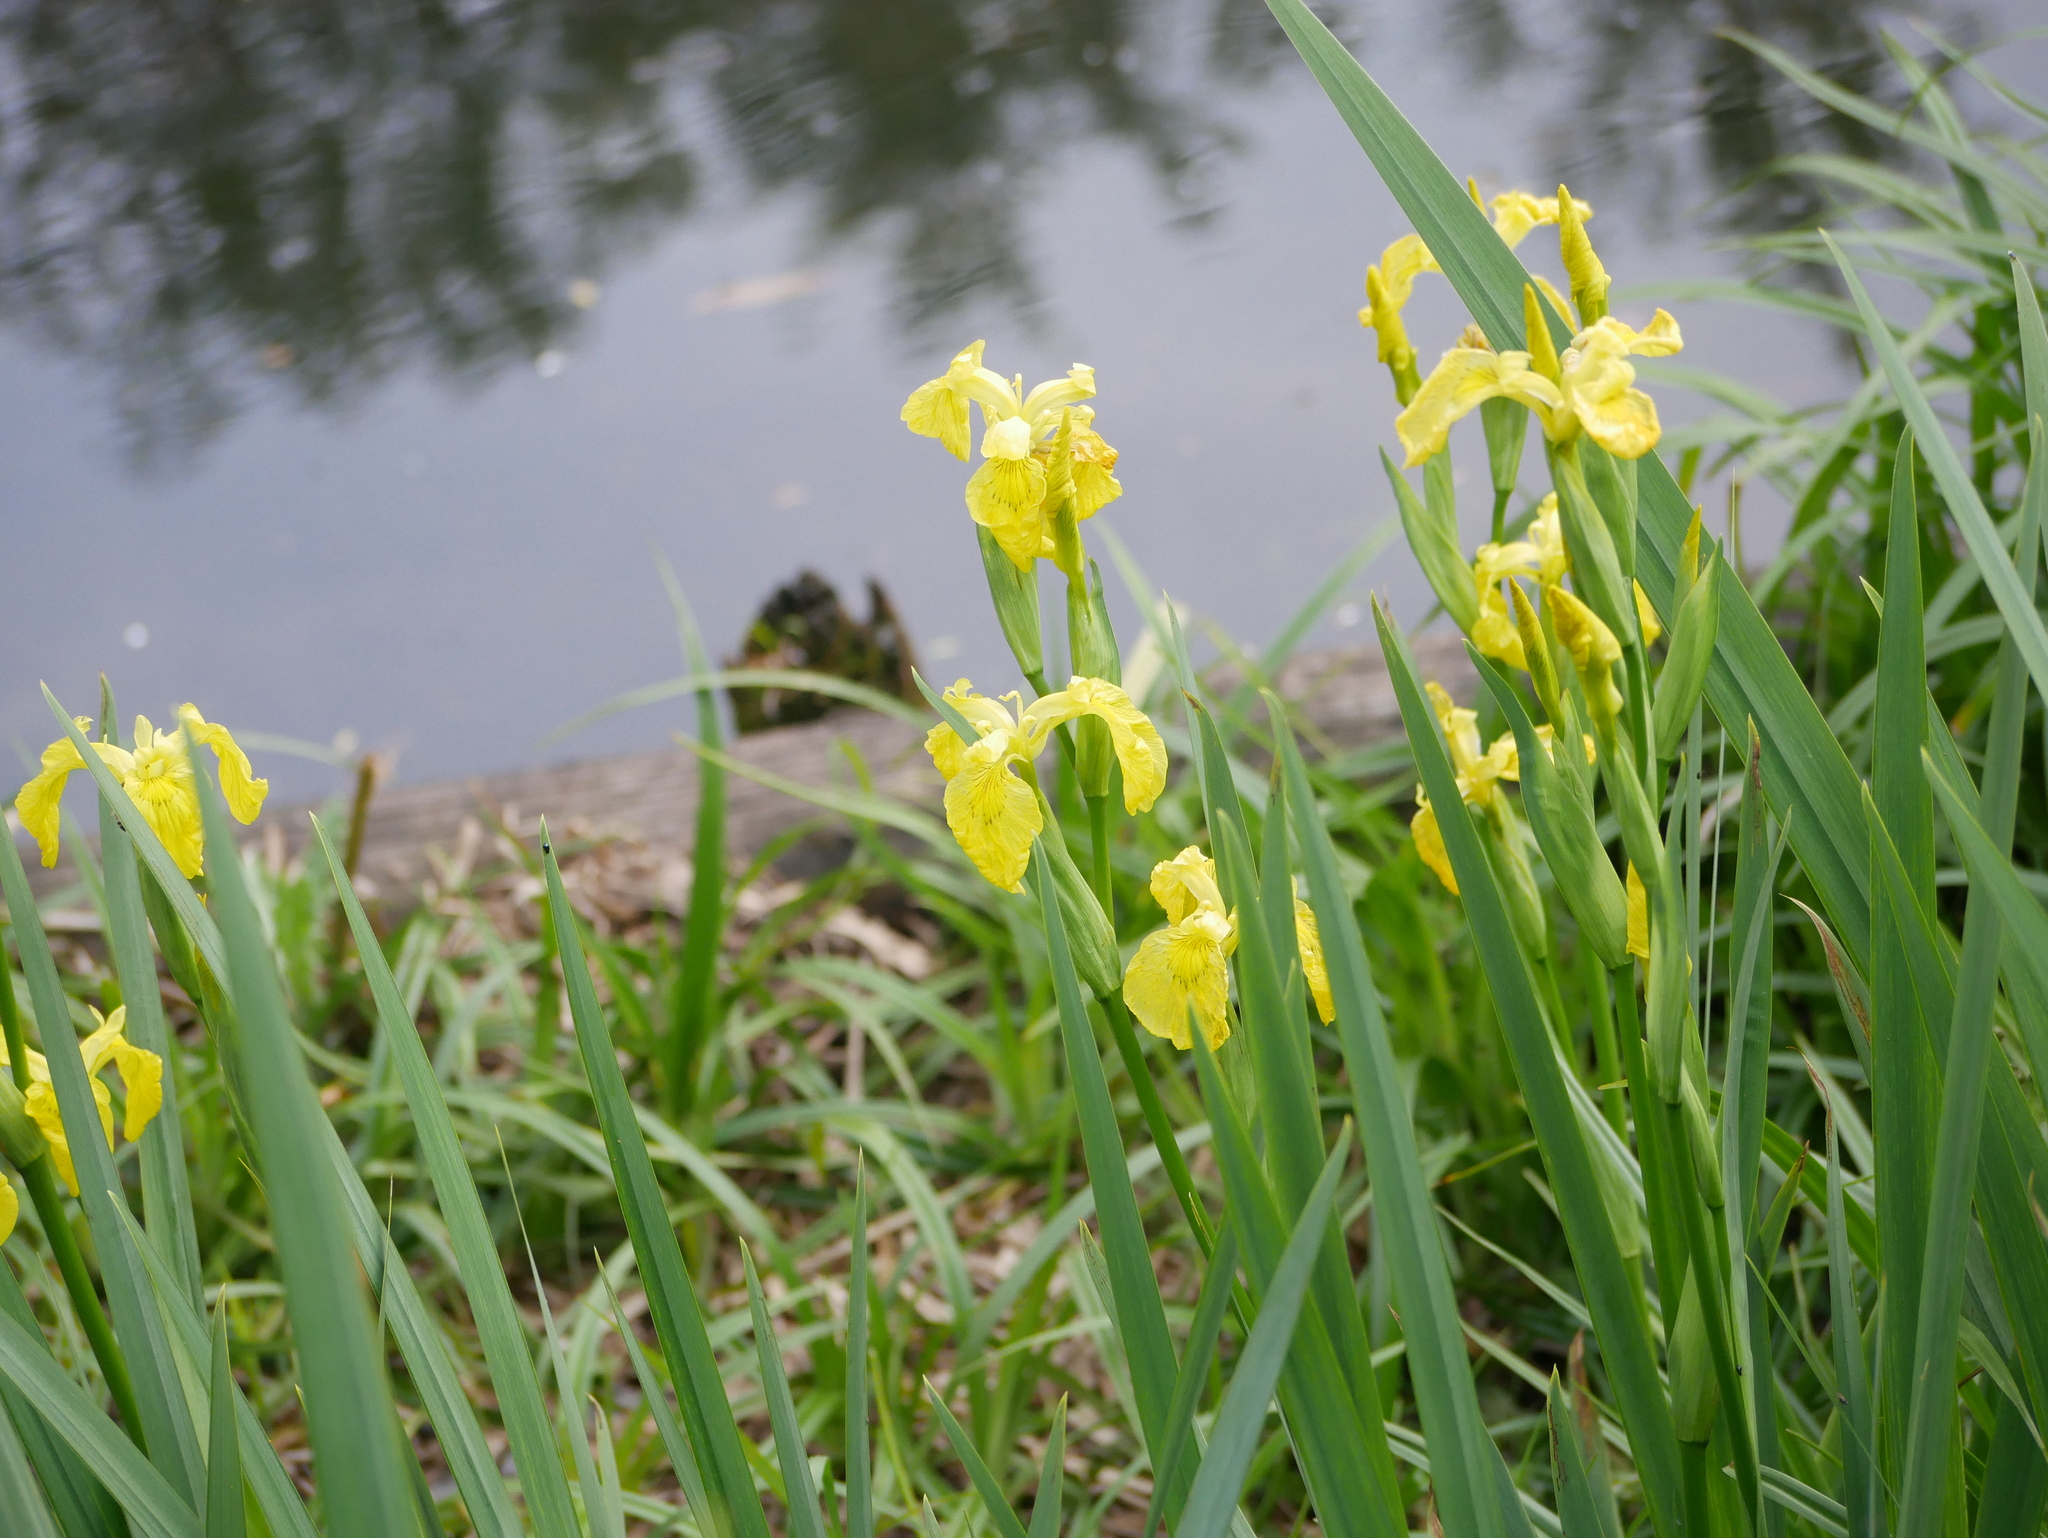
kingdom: Plantae
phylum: Tracheophyta
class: Liliopsida
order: Asparagales
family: Iridaceae
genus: Iris
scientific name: Iris pseudacorus
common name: Yellow flag
